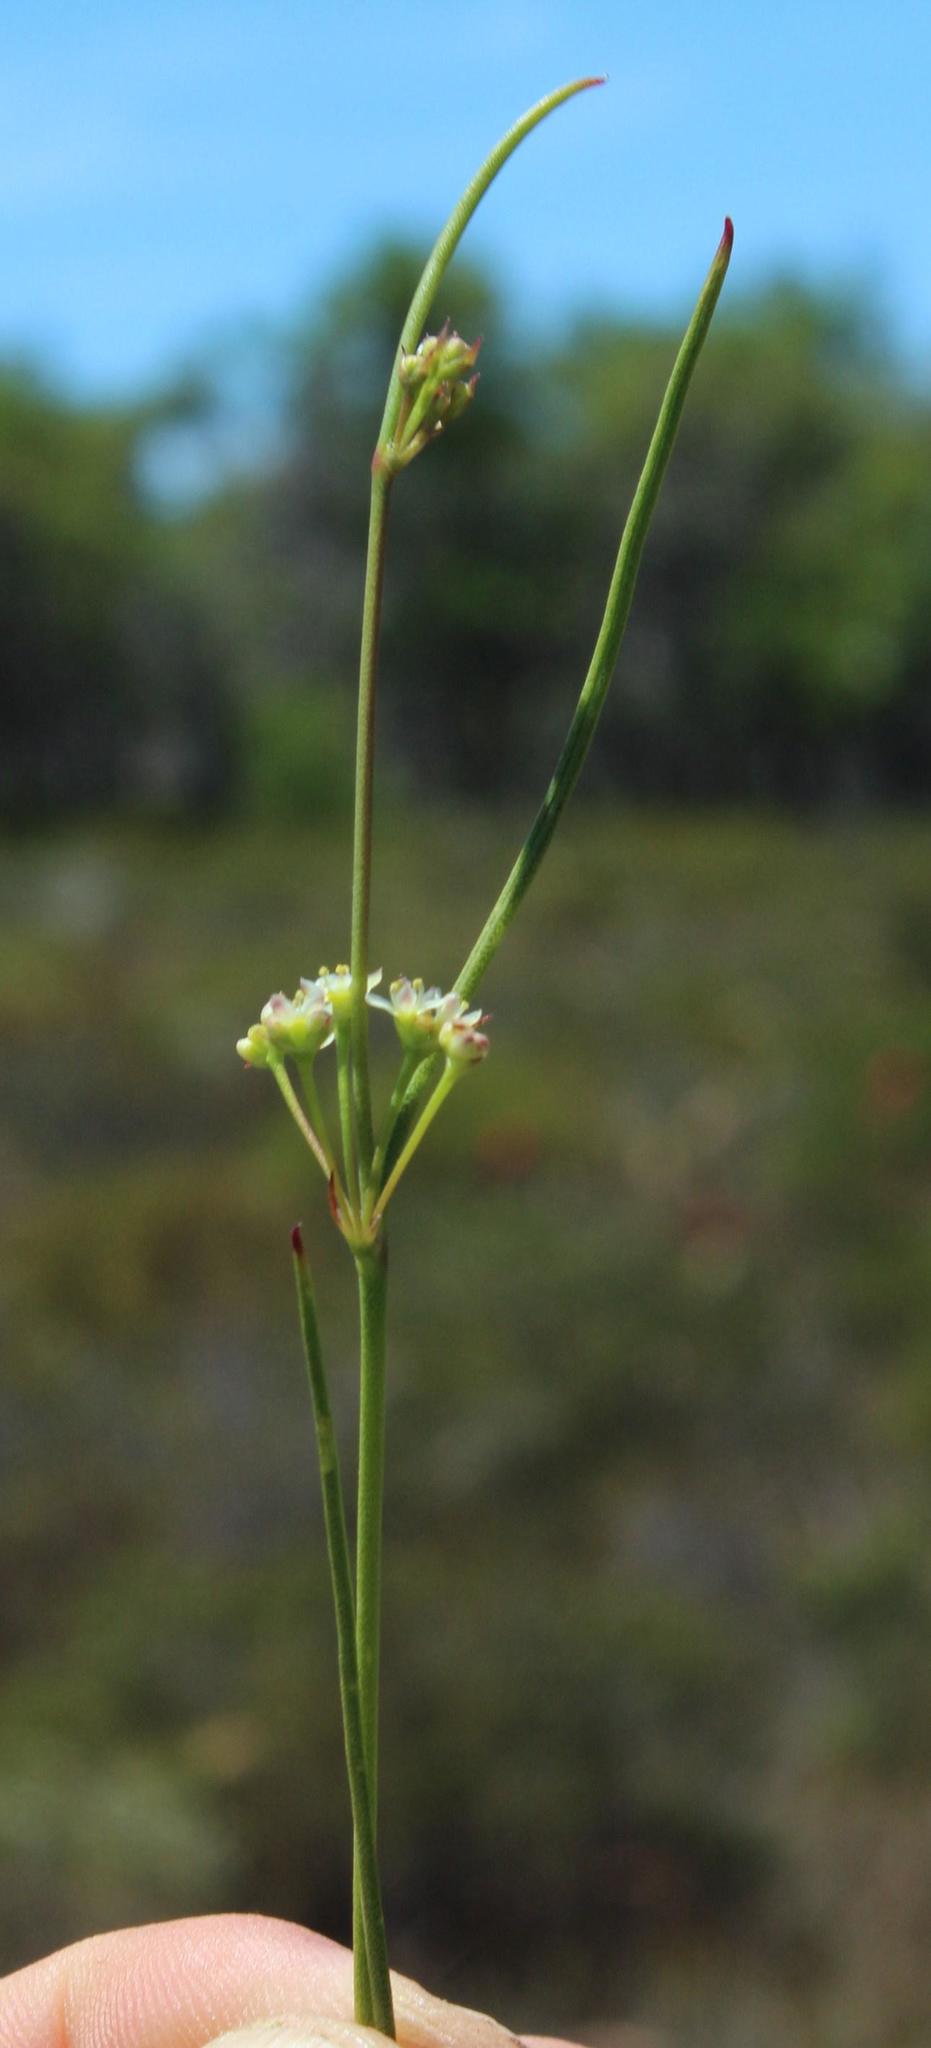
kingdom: Plantae
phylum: Tracheophyta
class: Magnoliopsida
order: Apiales
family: Apiaceae
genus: Centella
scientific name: Centella macrocarpa
